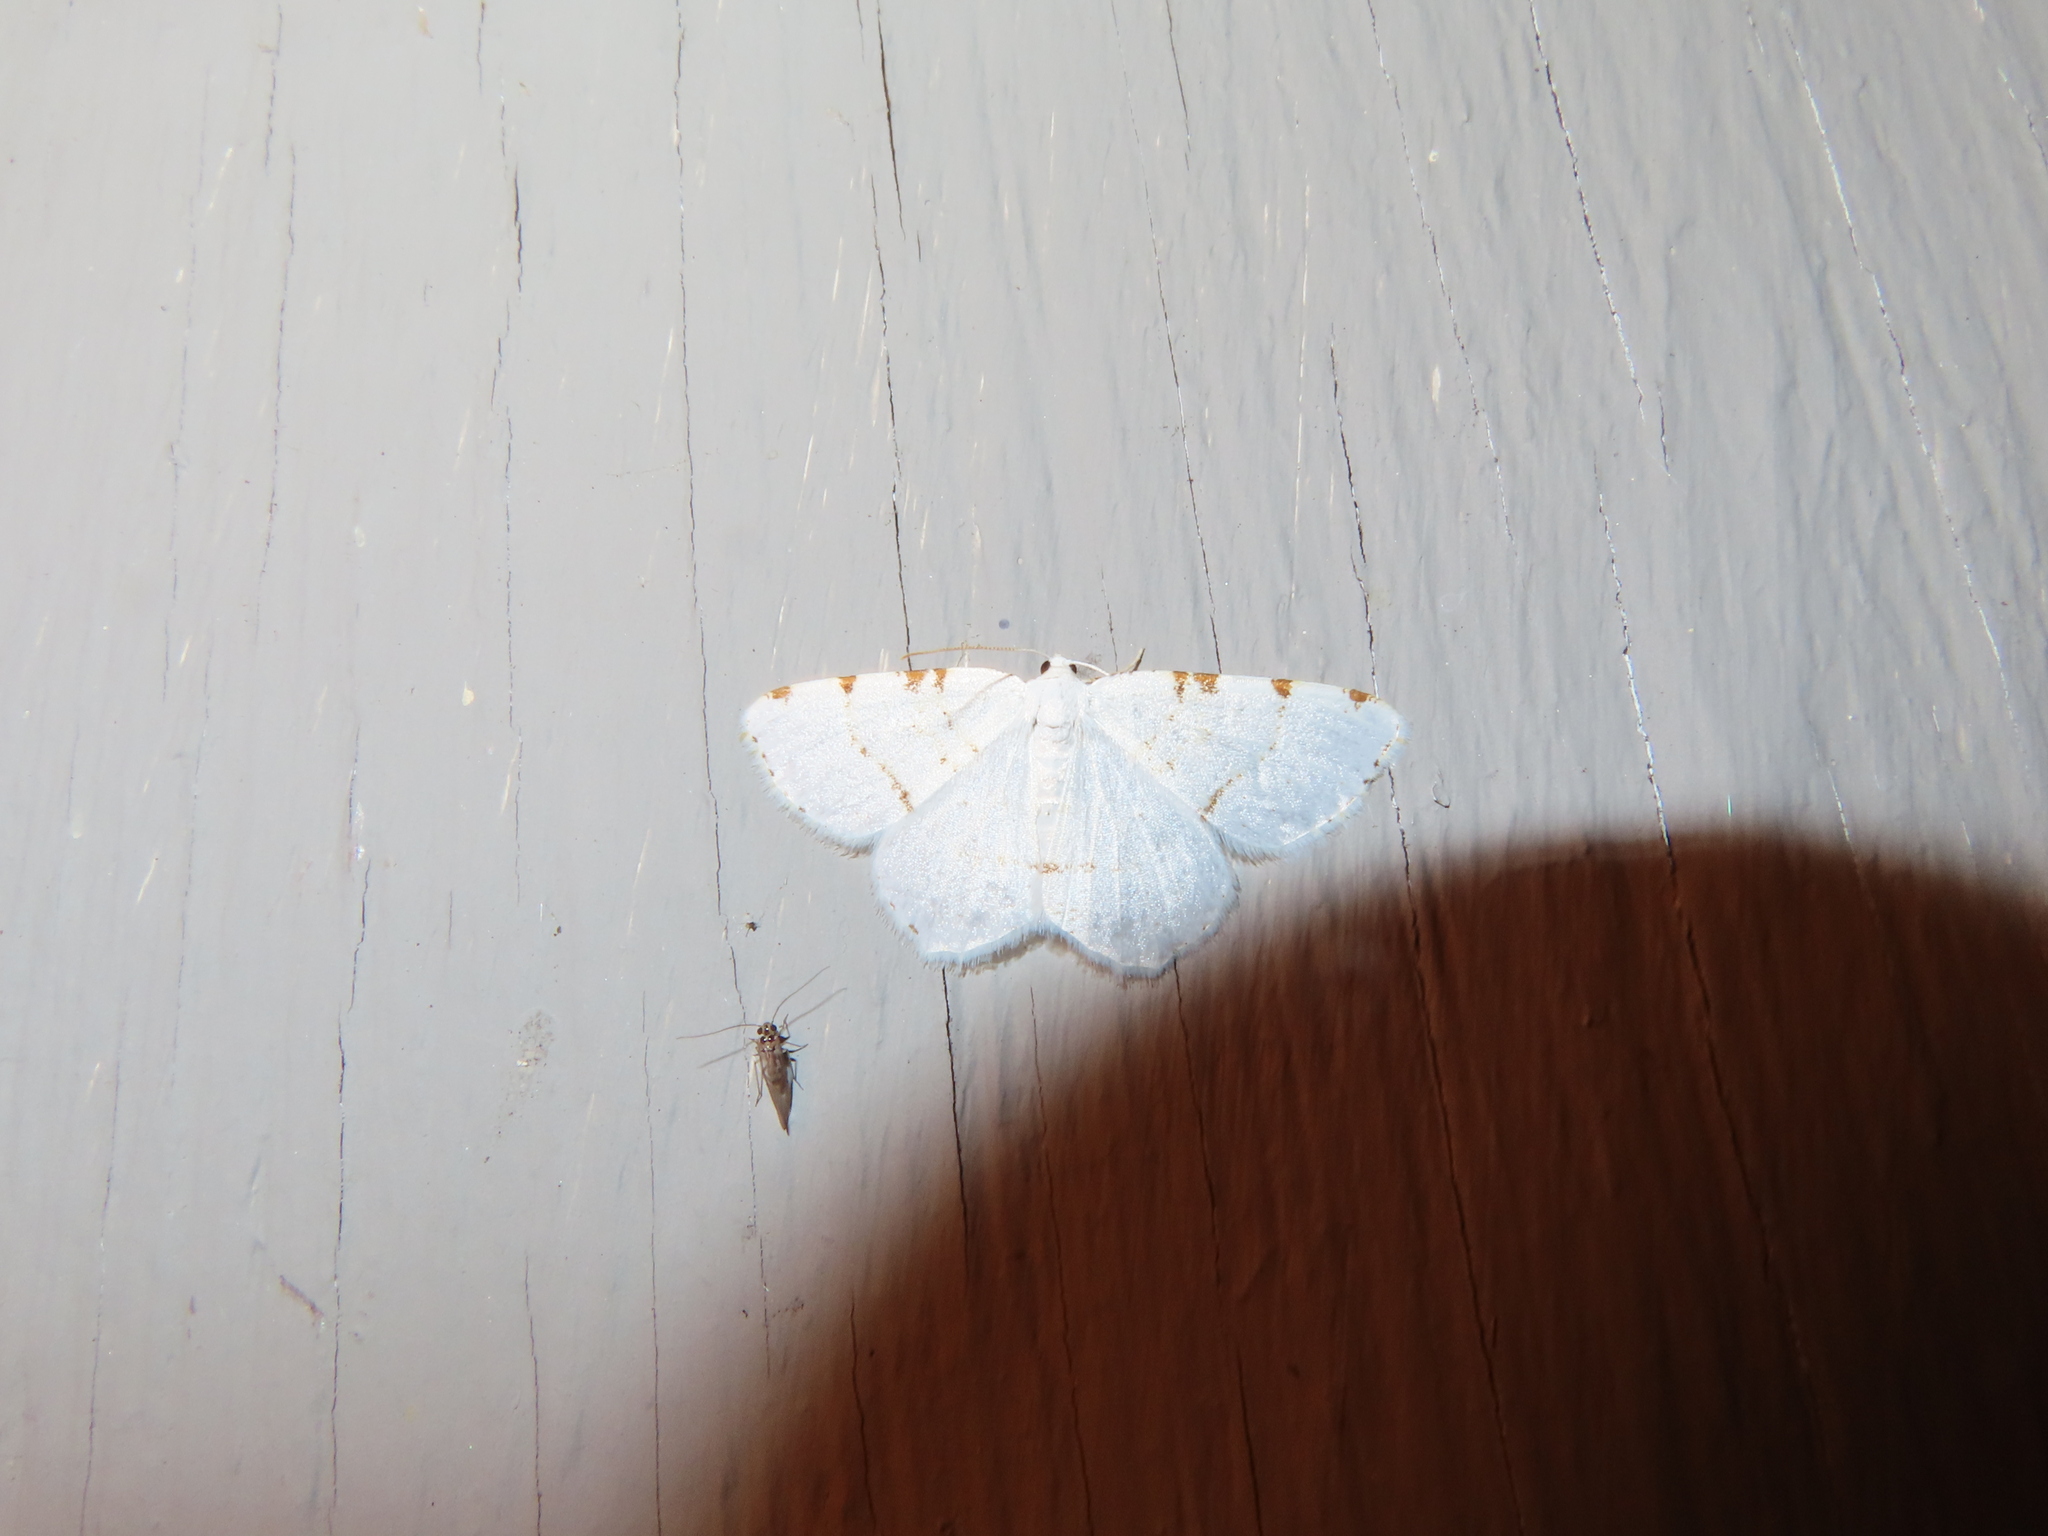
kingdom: Animalia
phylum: Arthropoda
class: Insecta
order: Lepidoptera
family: Geometridae
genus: Macaria
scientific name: Macaria pustularia
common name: Lesser maple spanworm moth
